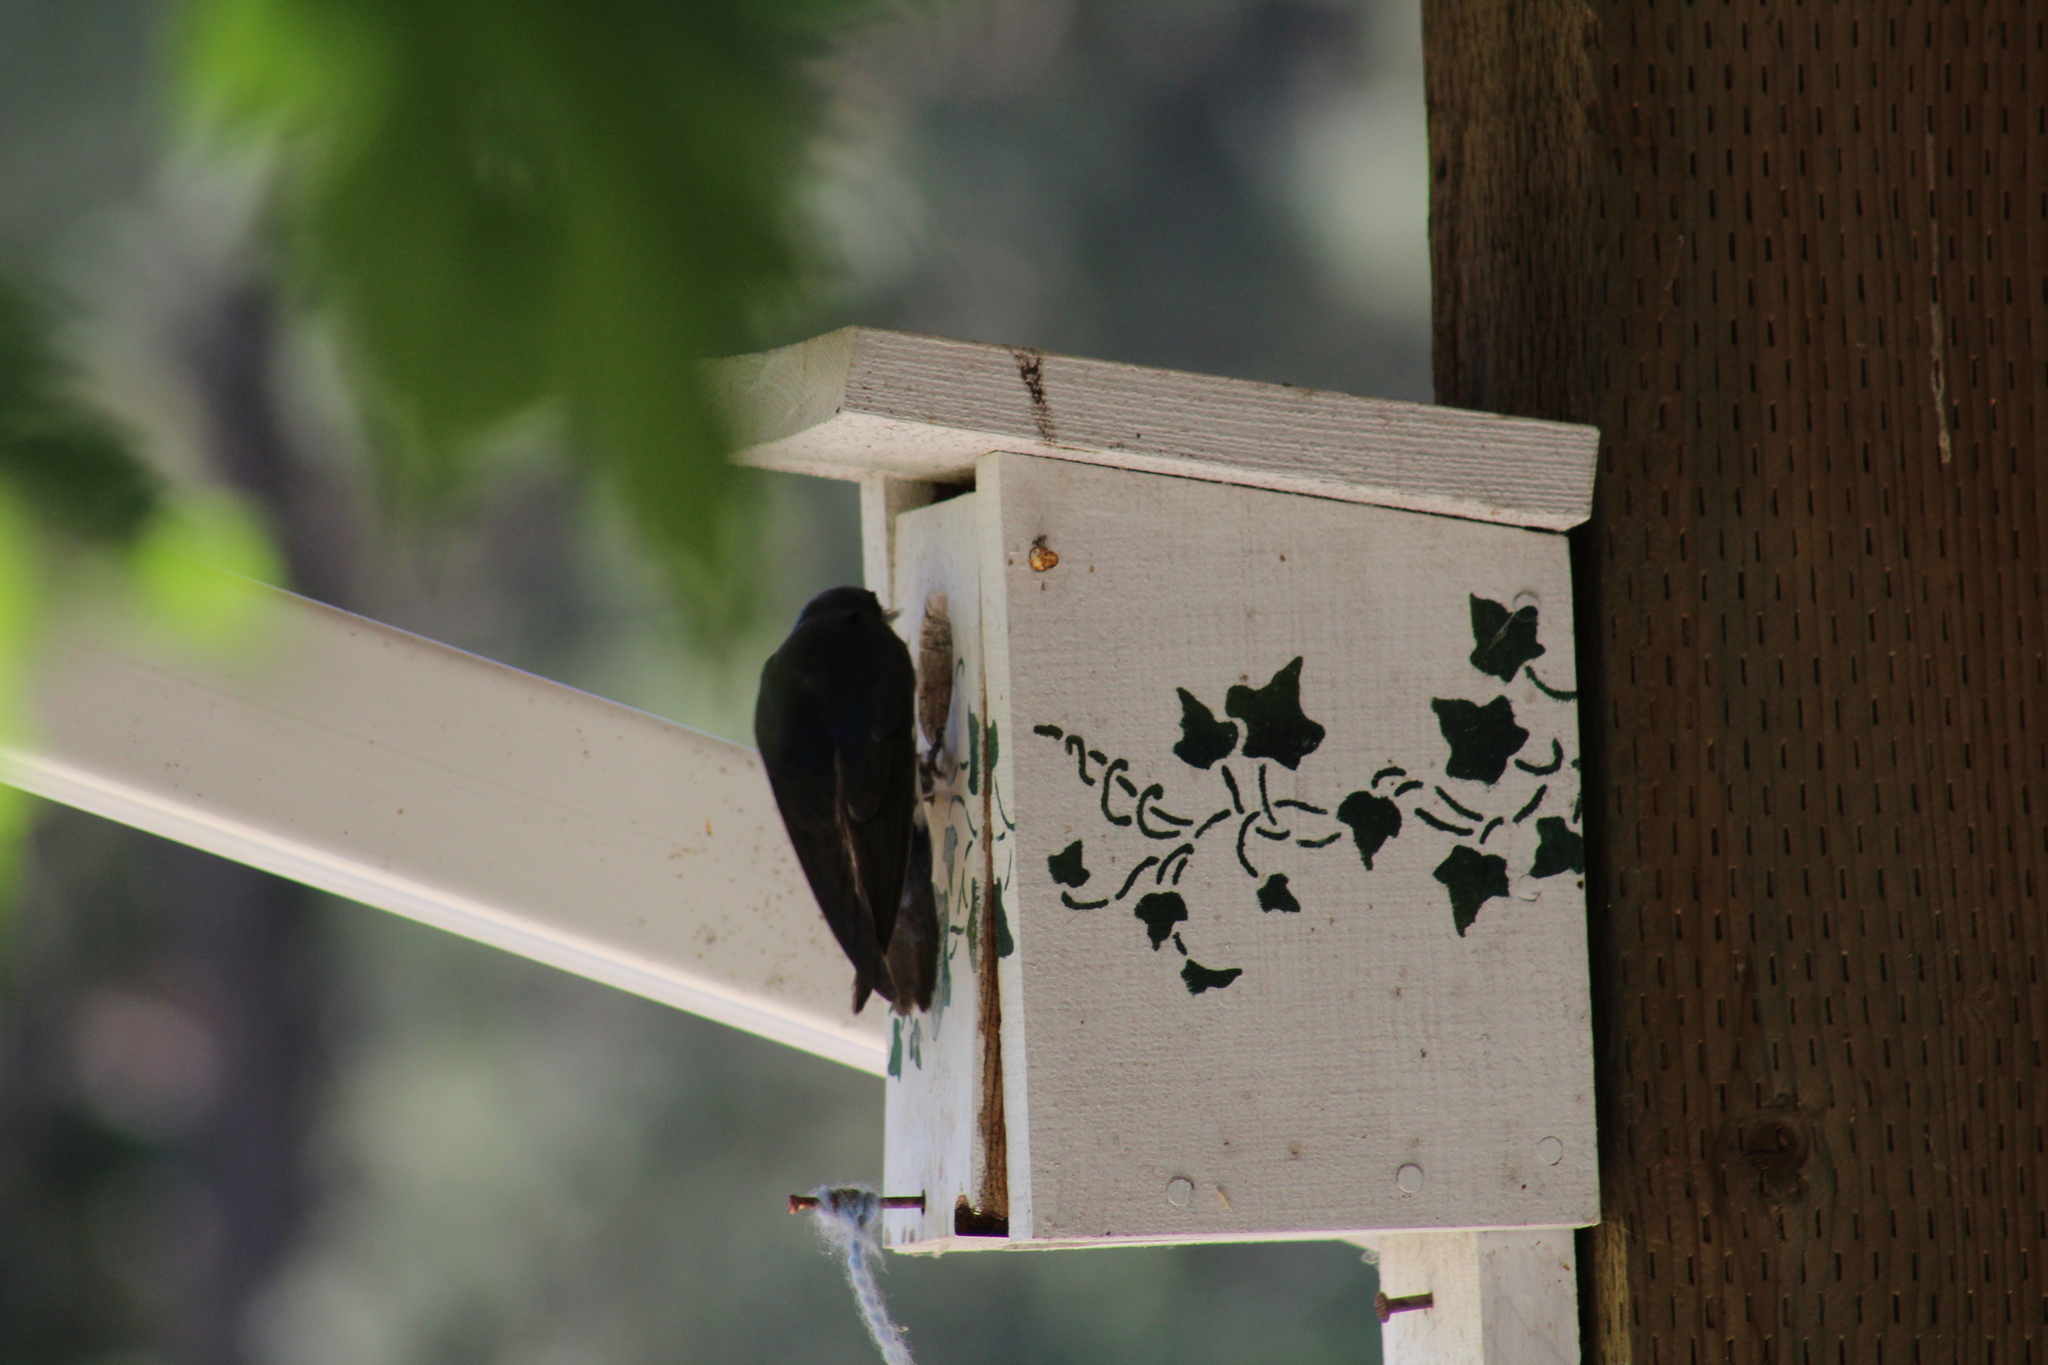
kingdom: Animalia
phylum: Chordata
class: Aves
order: Passeriformes
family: Hirundinidae
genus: Tachycineta
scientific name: Tachycineta bicolor
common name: Tree swallow
